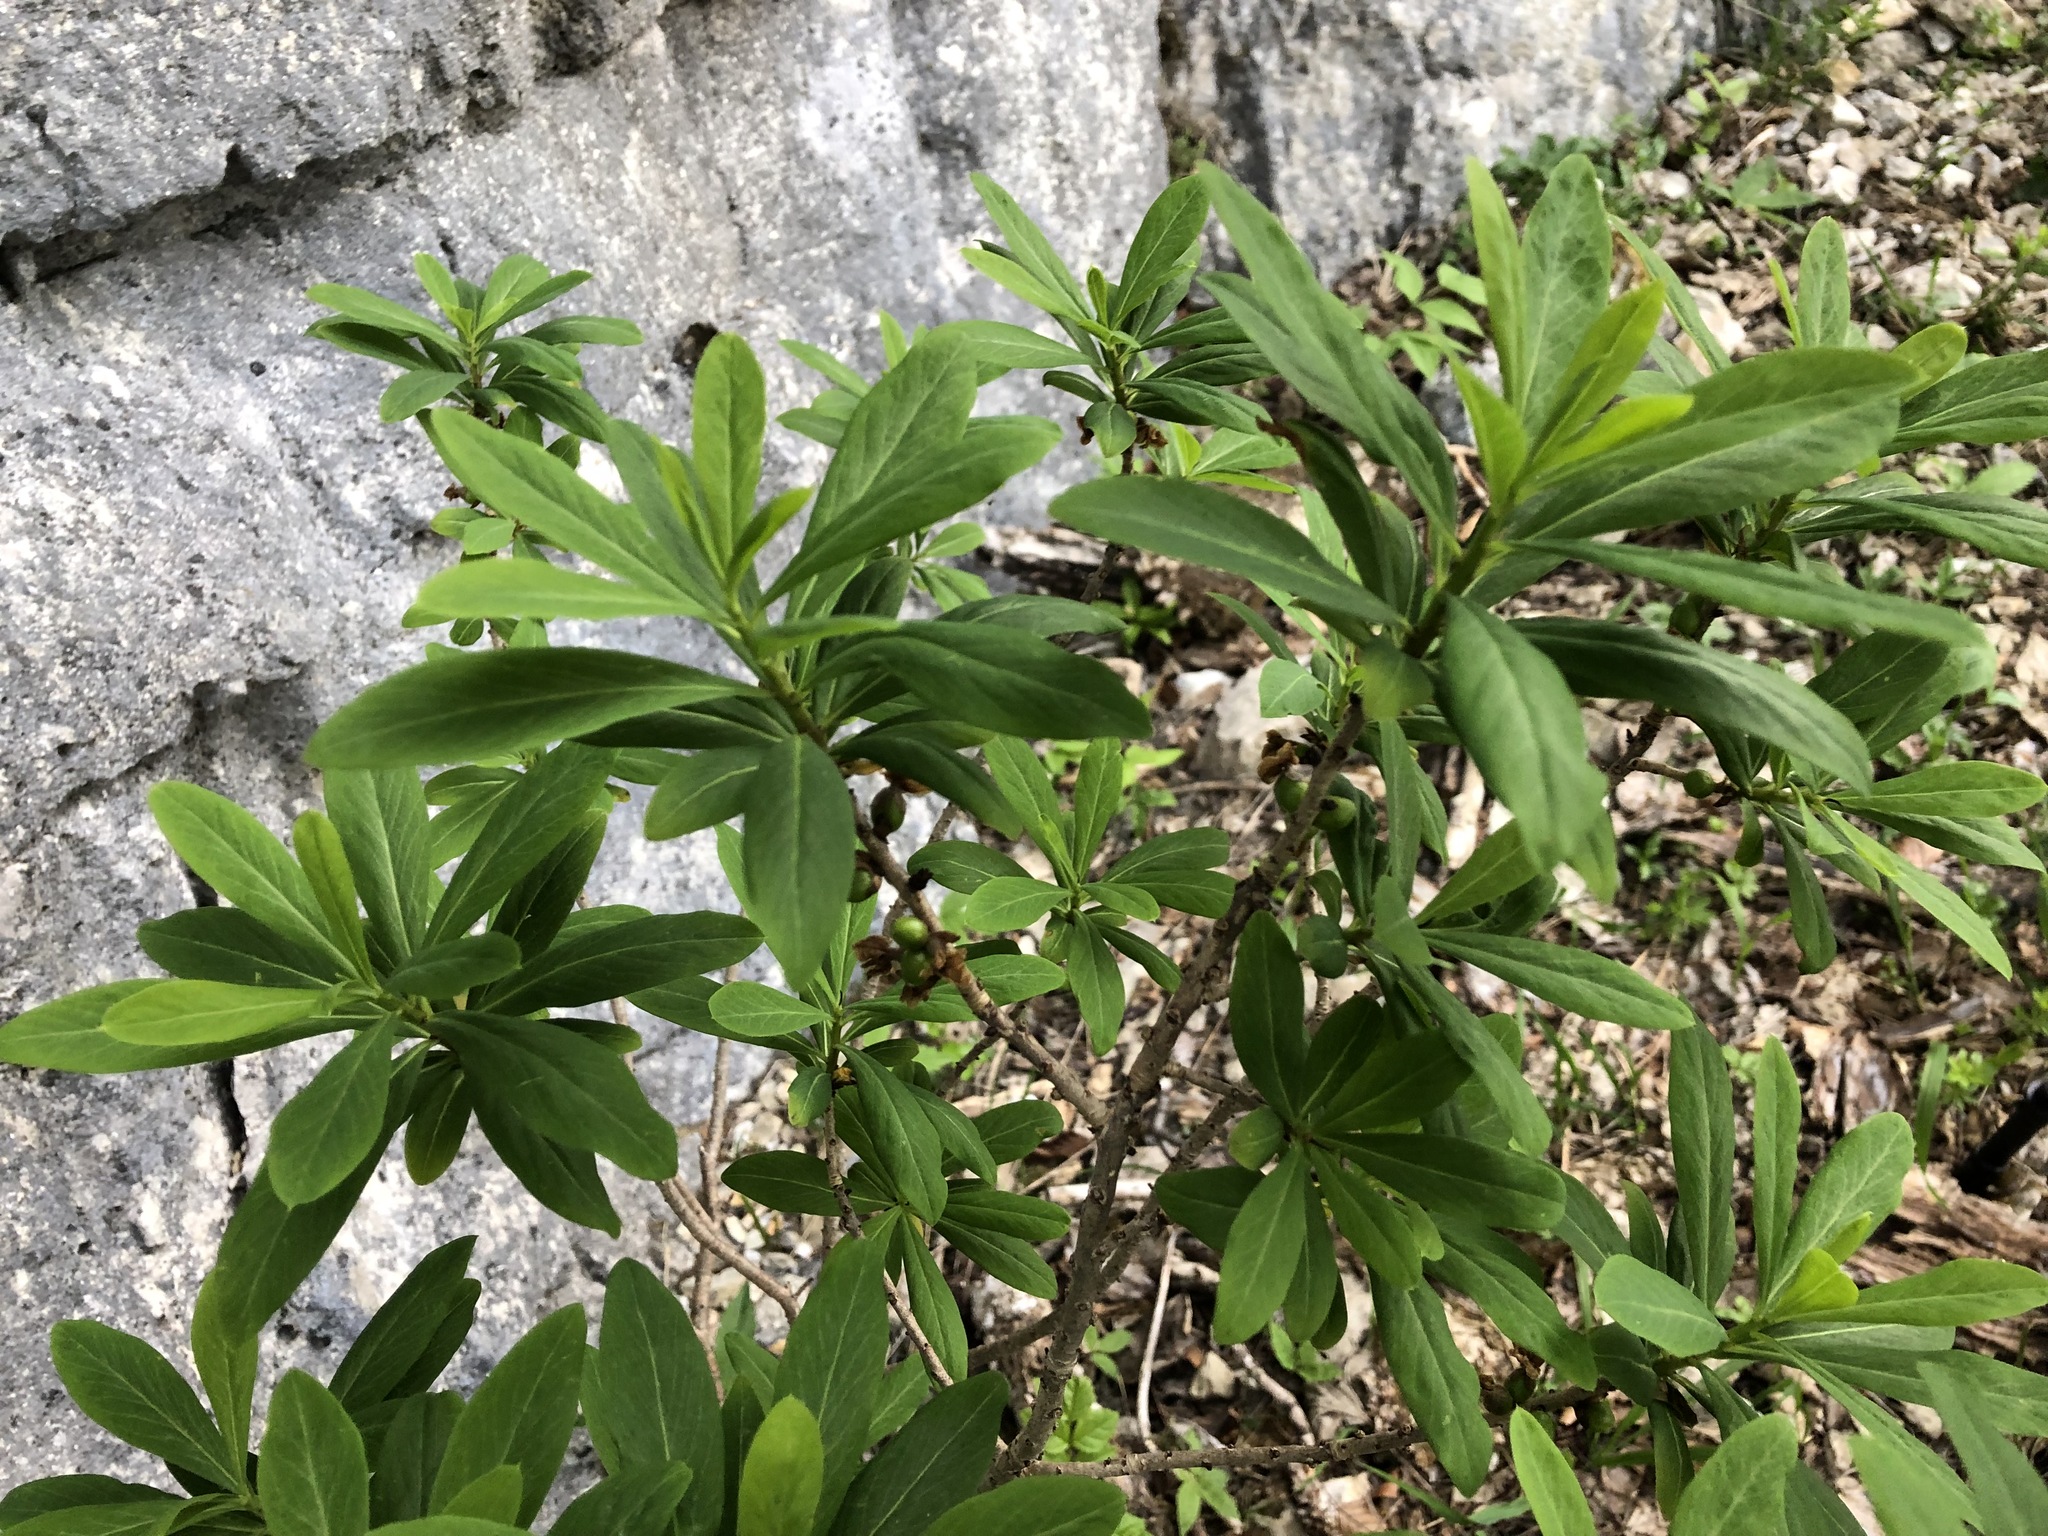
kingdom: Plantae
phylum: Tracheophyta
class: Magnoliopsida
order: Malvales
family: Thymelaeaceae
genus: Daphne
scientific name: Daphne mezereum
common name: Mezereon
